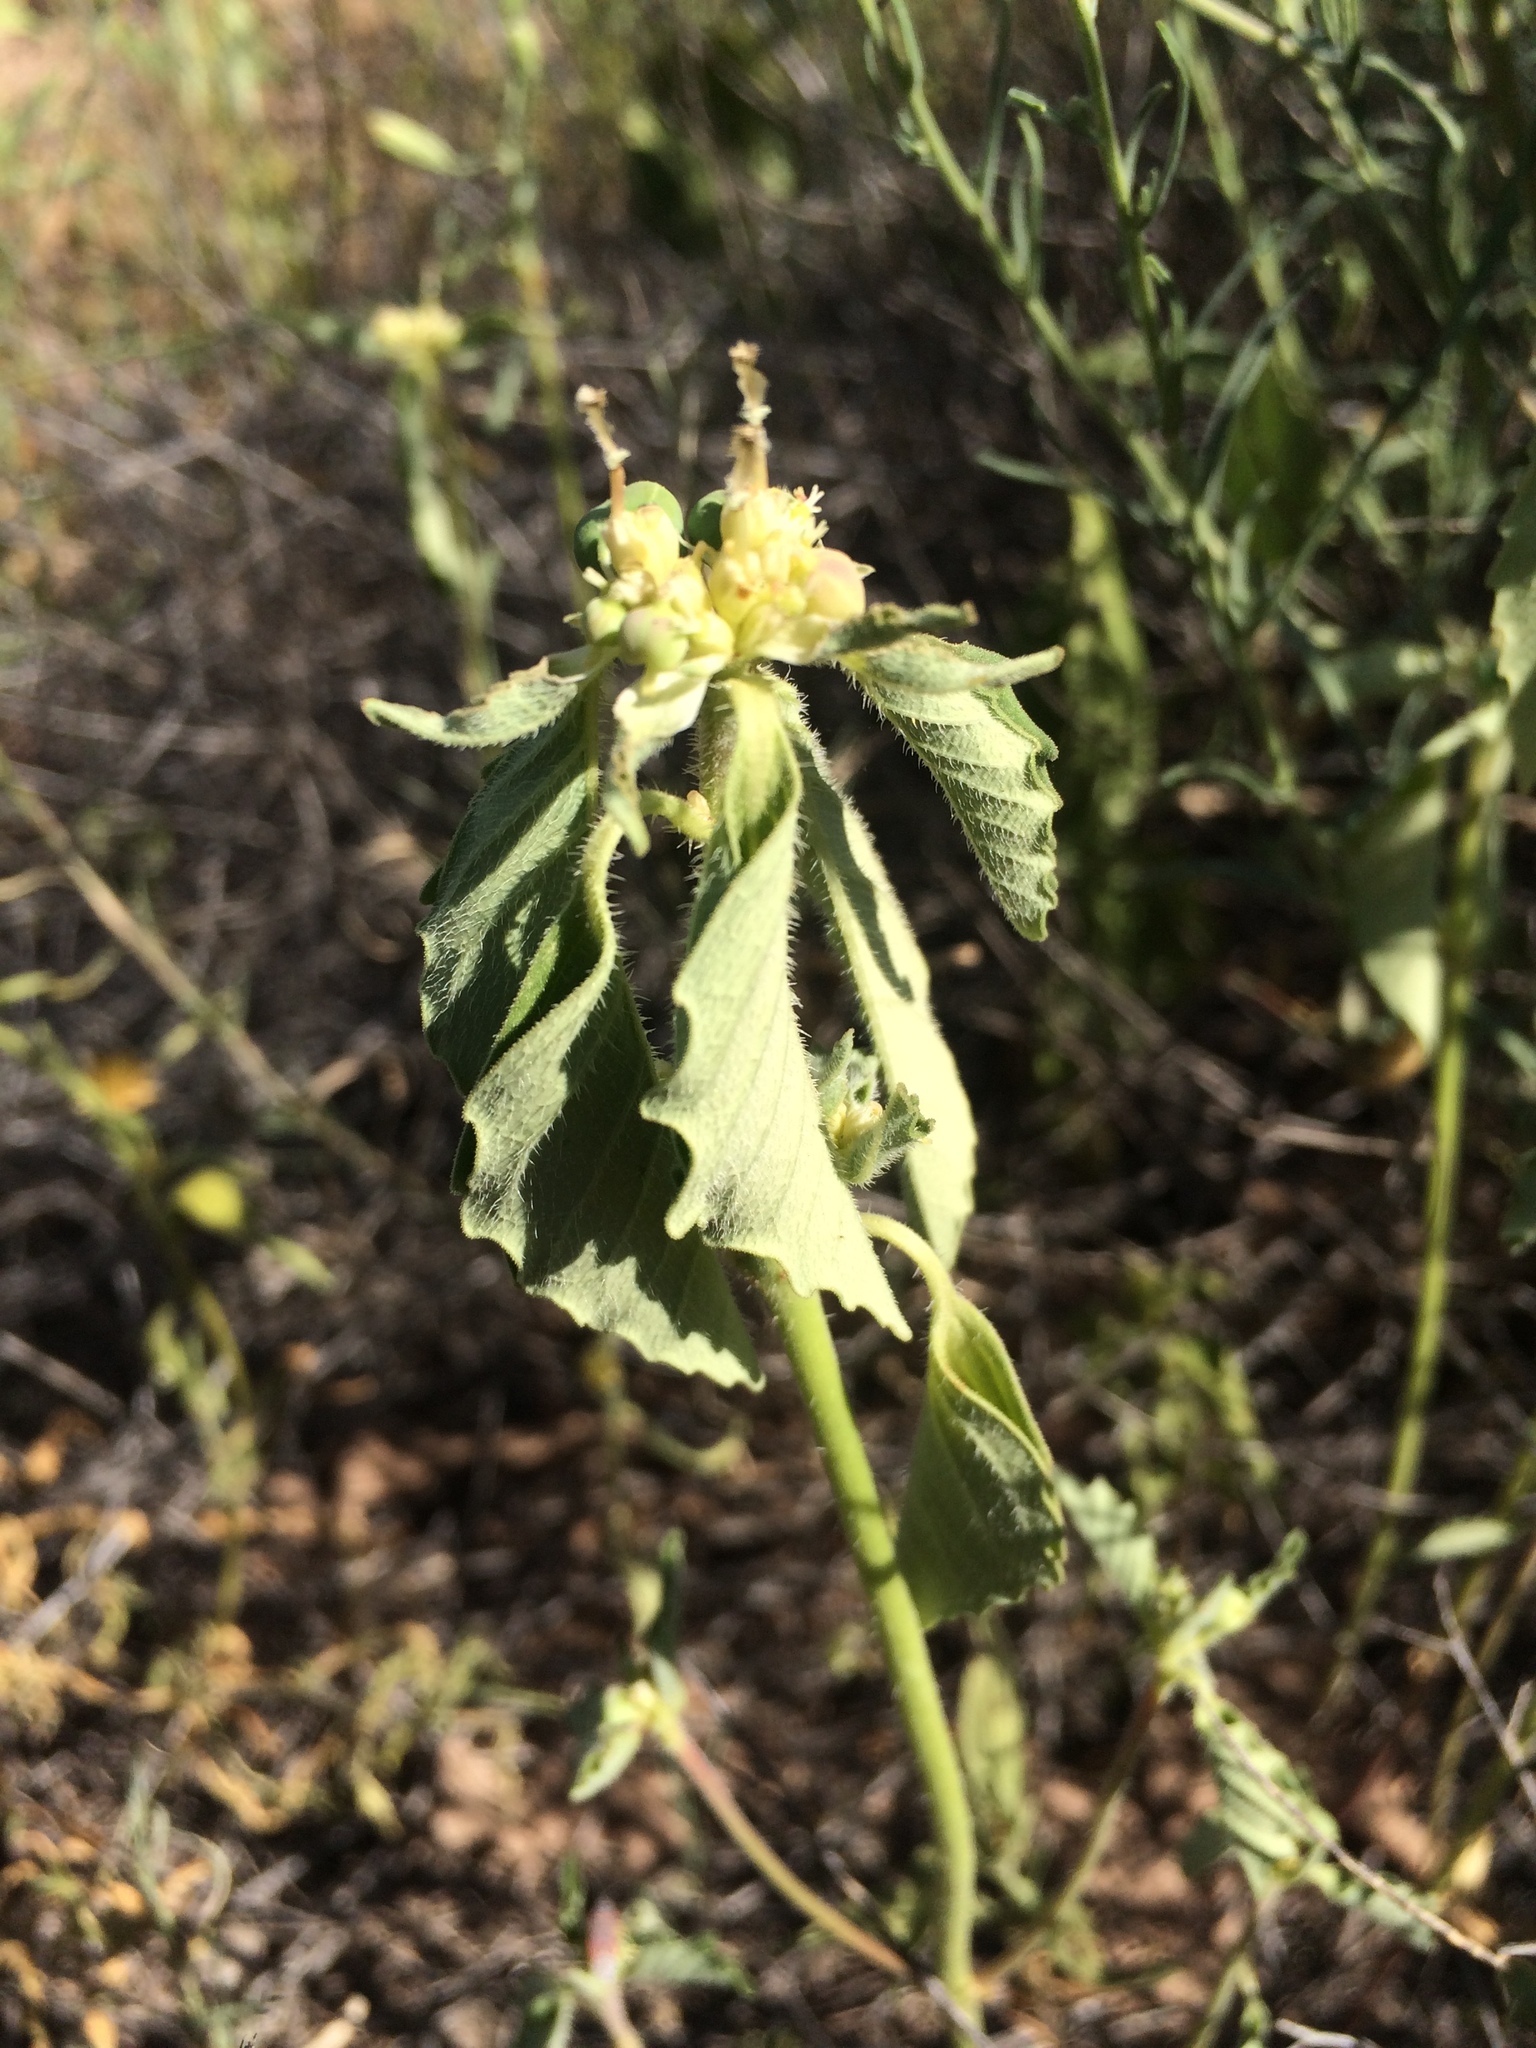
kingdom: Plantae
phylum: Tracheophyta
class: Magnoliopsida
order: Malpighiales
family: Euphorbiaceae
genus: Euphorbia
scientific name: Euphorbia davidii
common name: David's spurge
